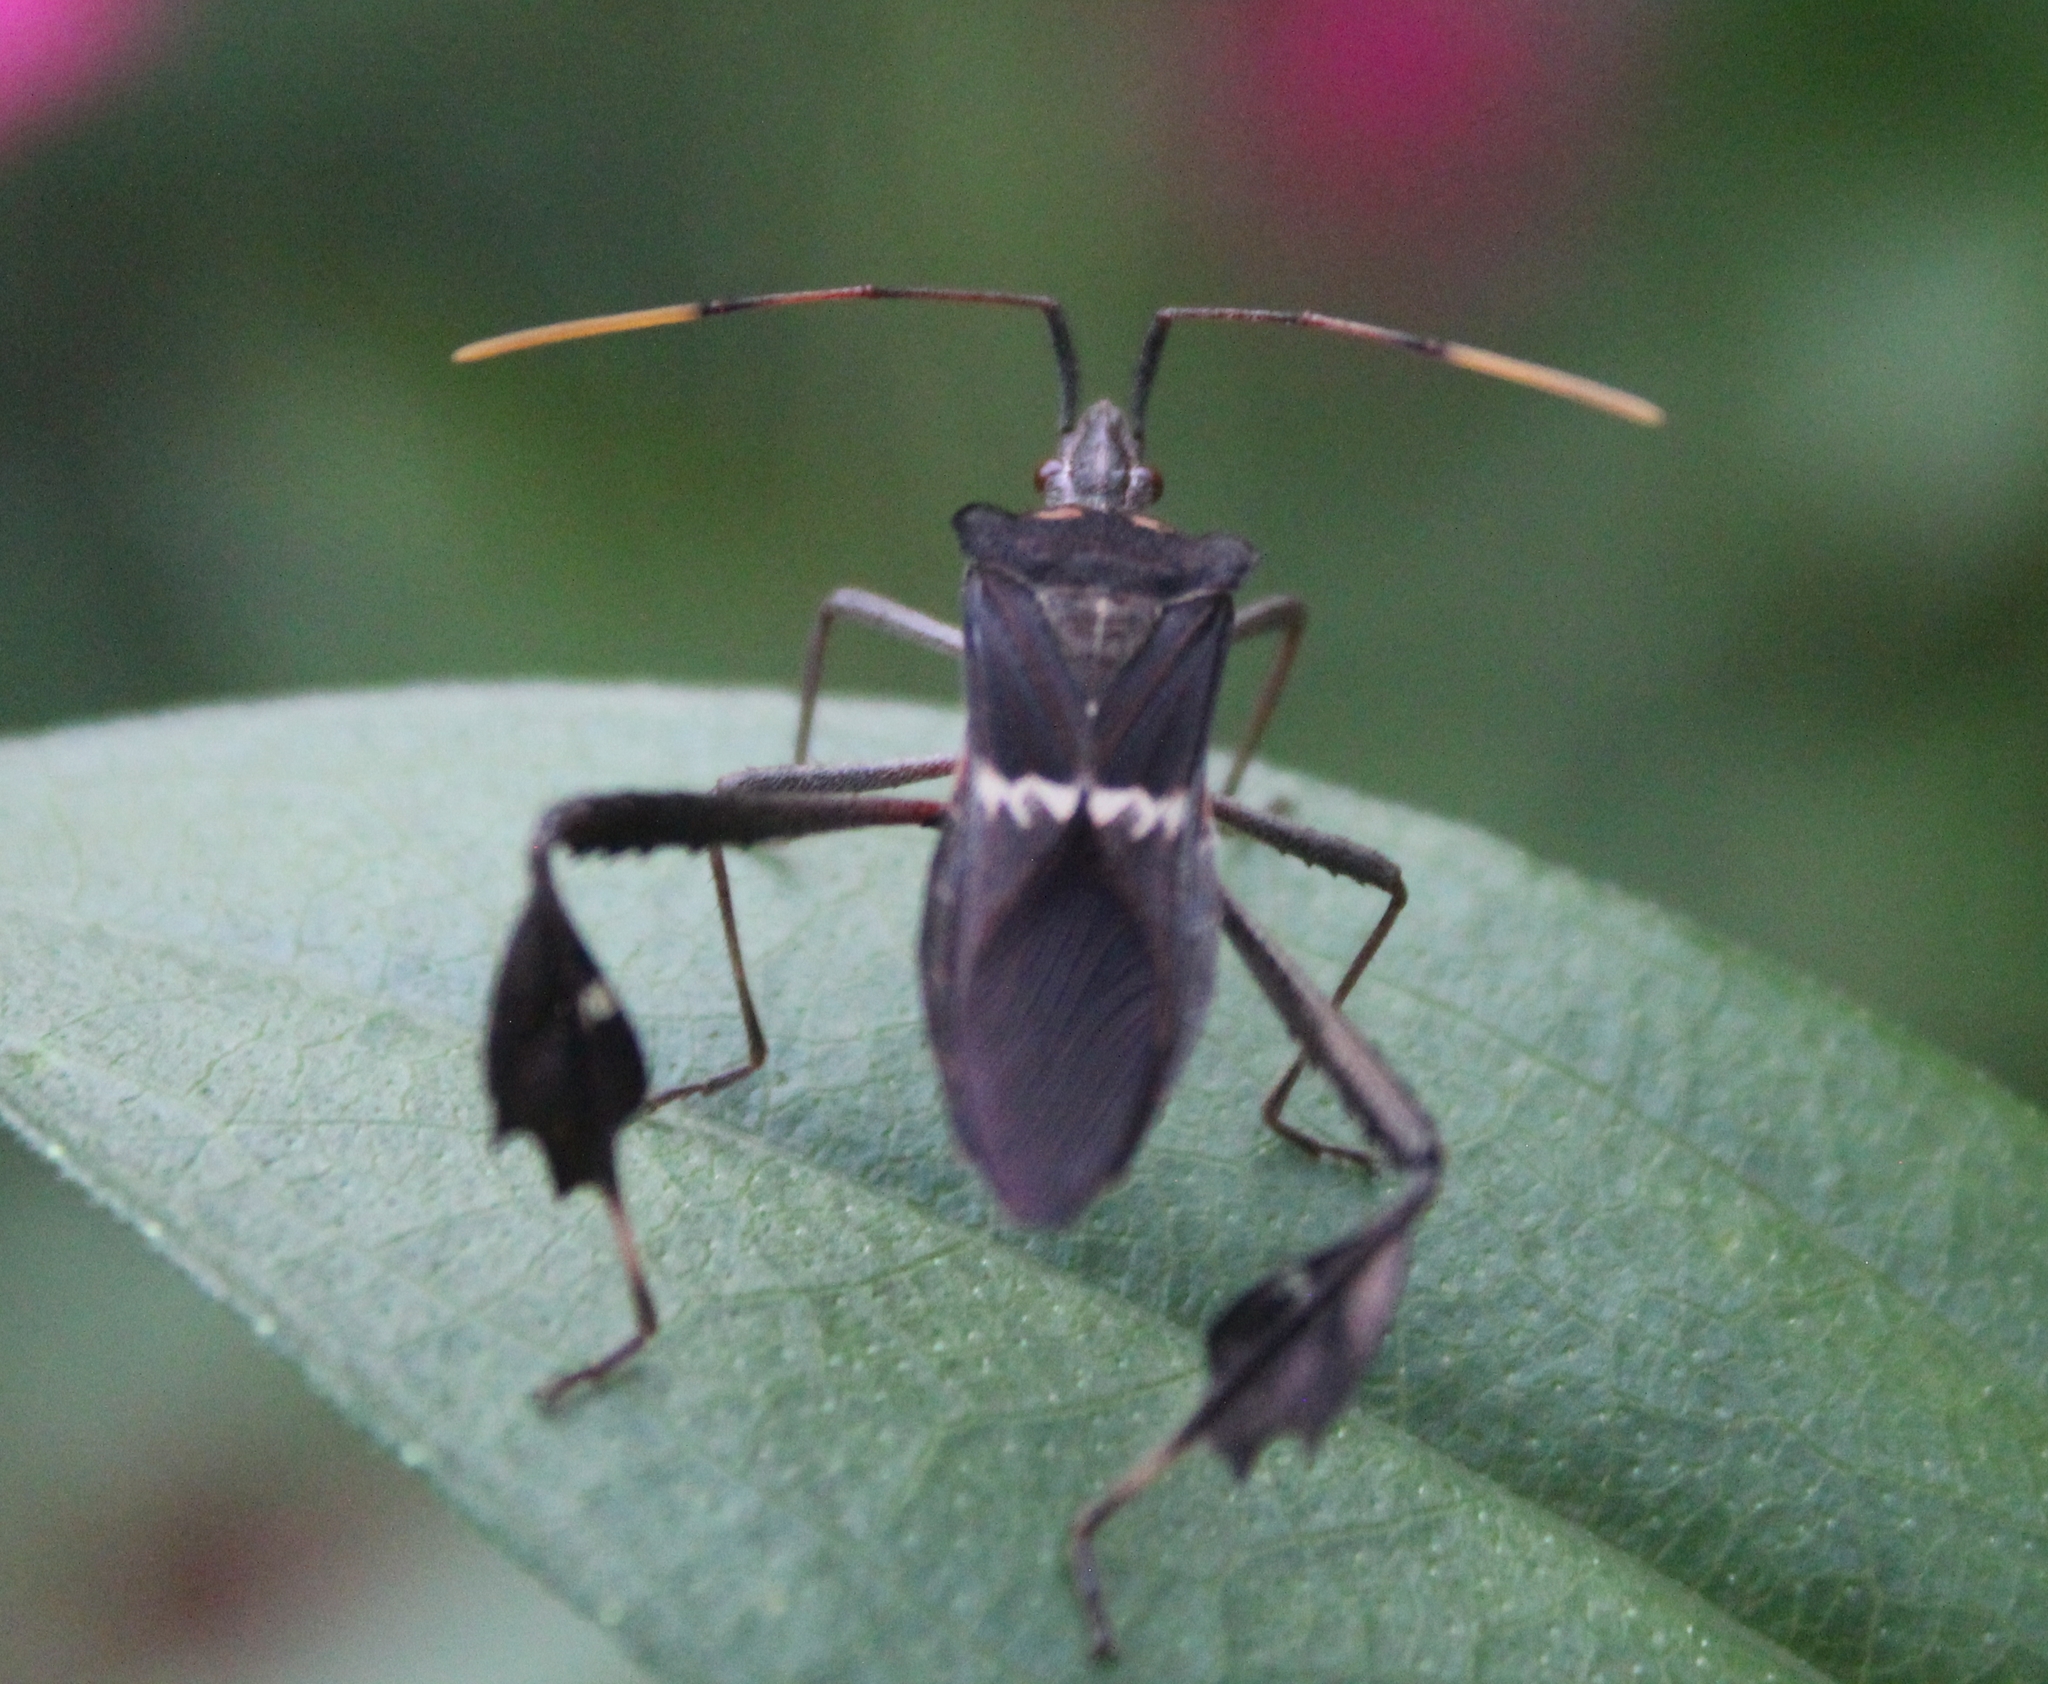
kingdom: Animalia
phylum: Arthropoda
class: Insecta
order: Hemiptera
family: Coreidae
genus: Leptoglossus
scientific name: Leptoglossus zonatus
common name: Large-legged bug
